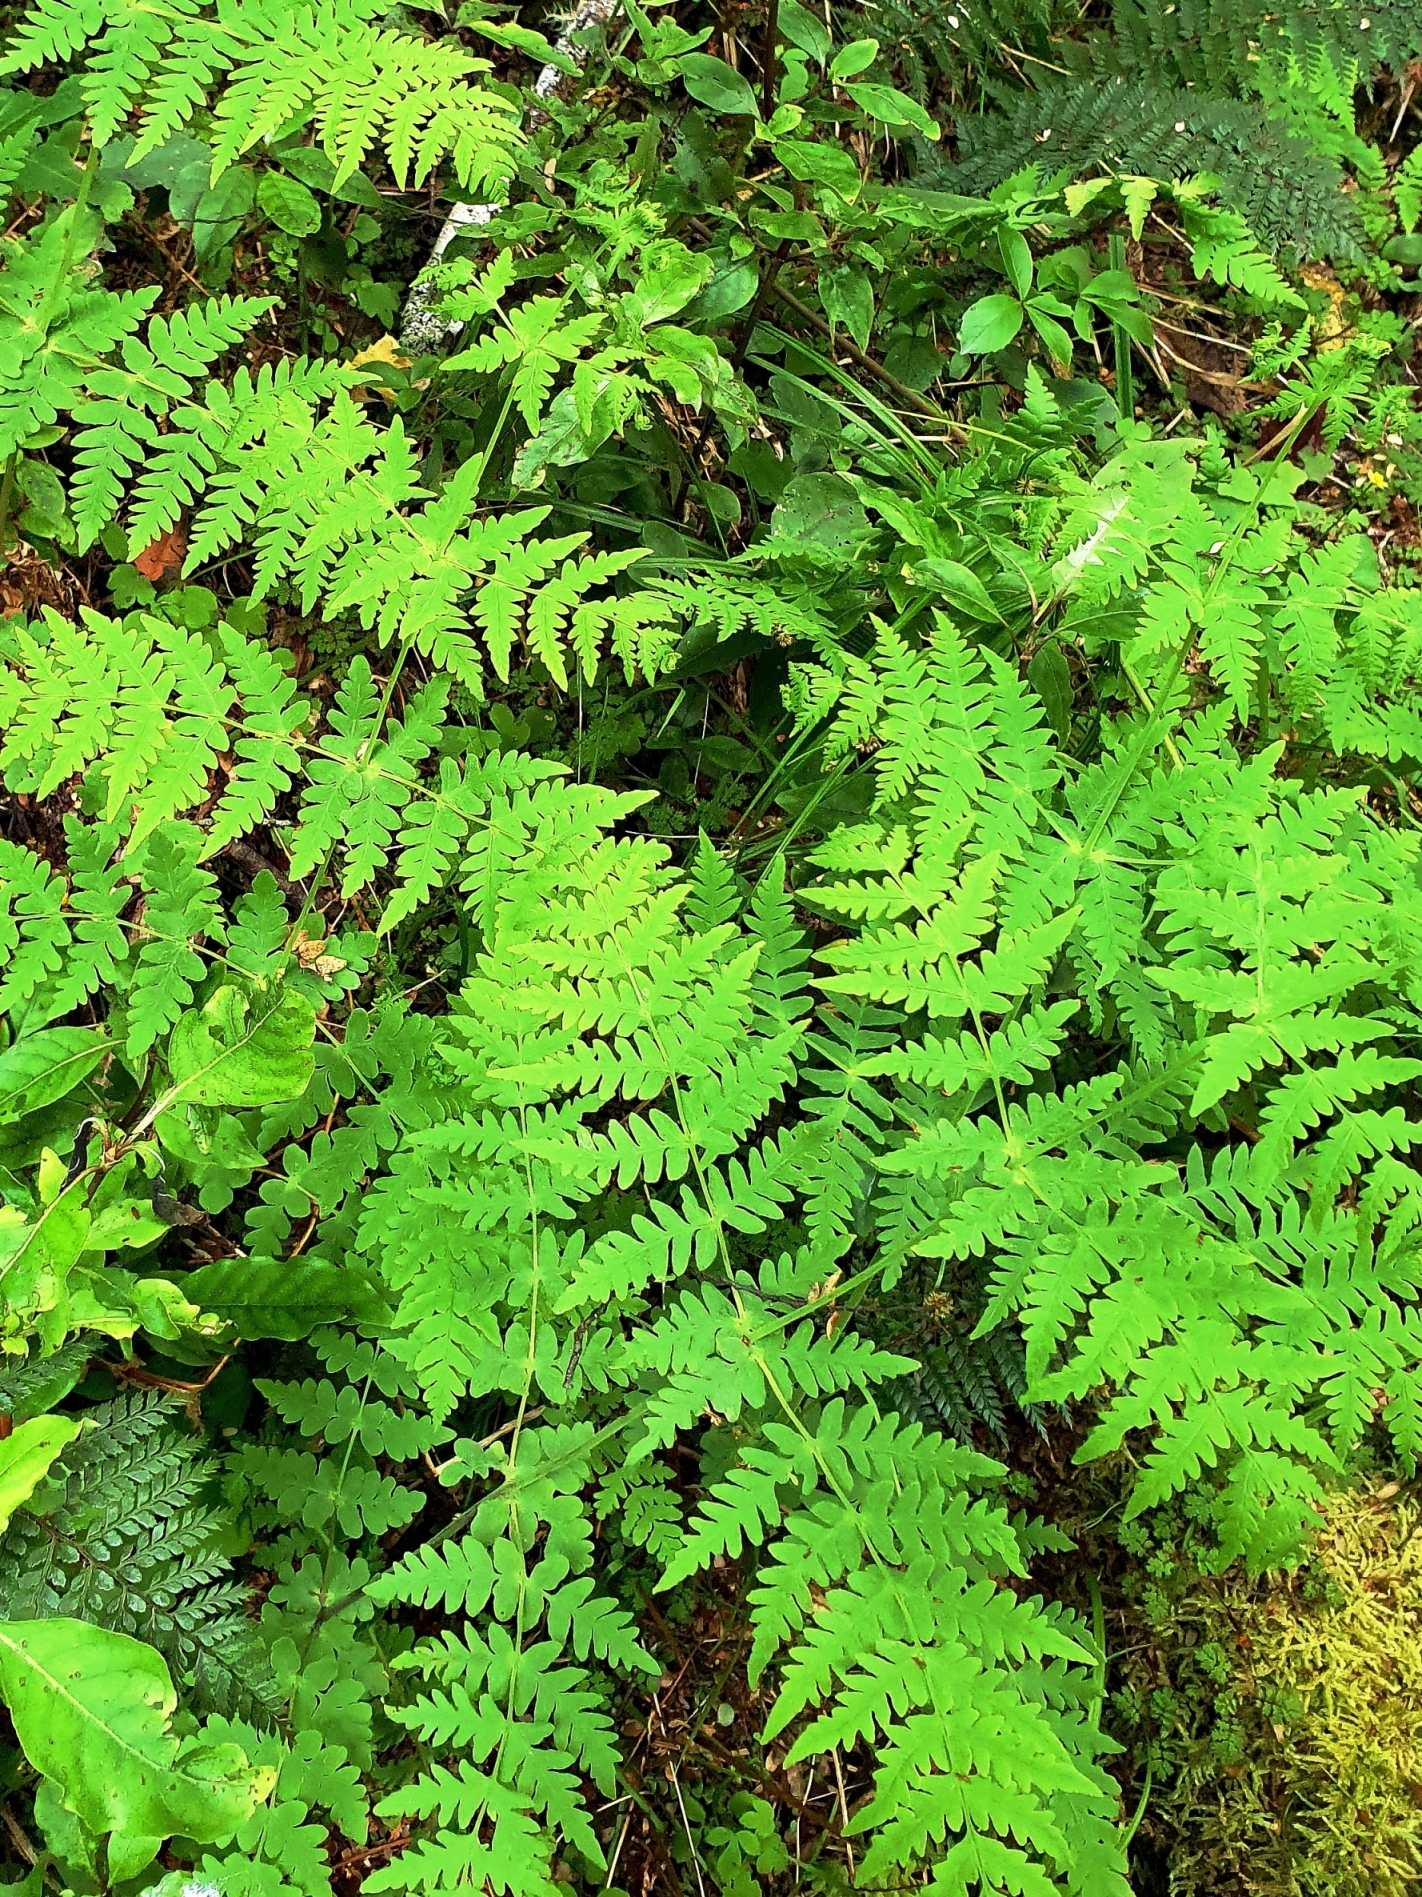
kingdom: Plantae
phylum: Tracheophyta
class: Polypodiopsida
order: Polypodiales
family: Dennstaedtiaceae
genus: Histiopteris
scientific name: Histiopteris incisa
